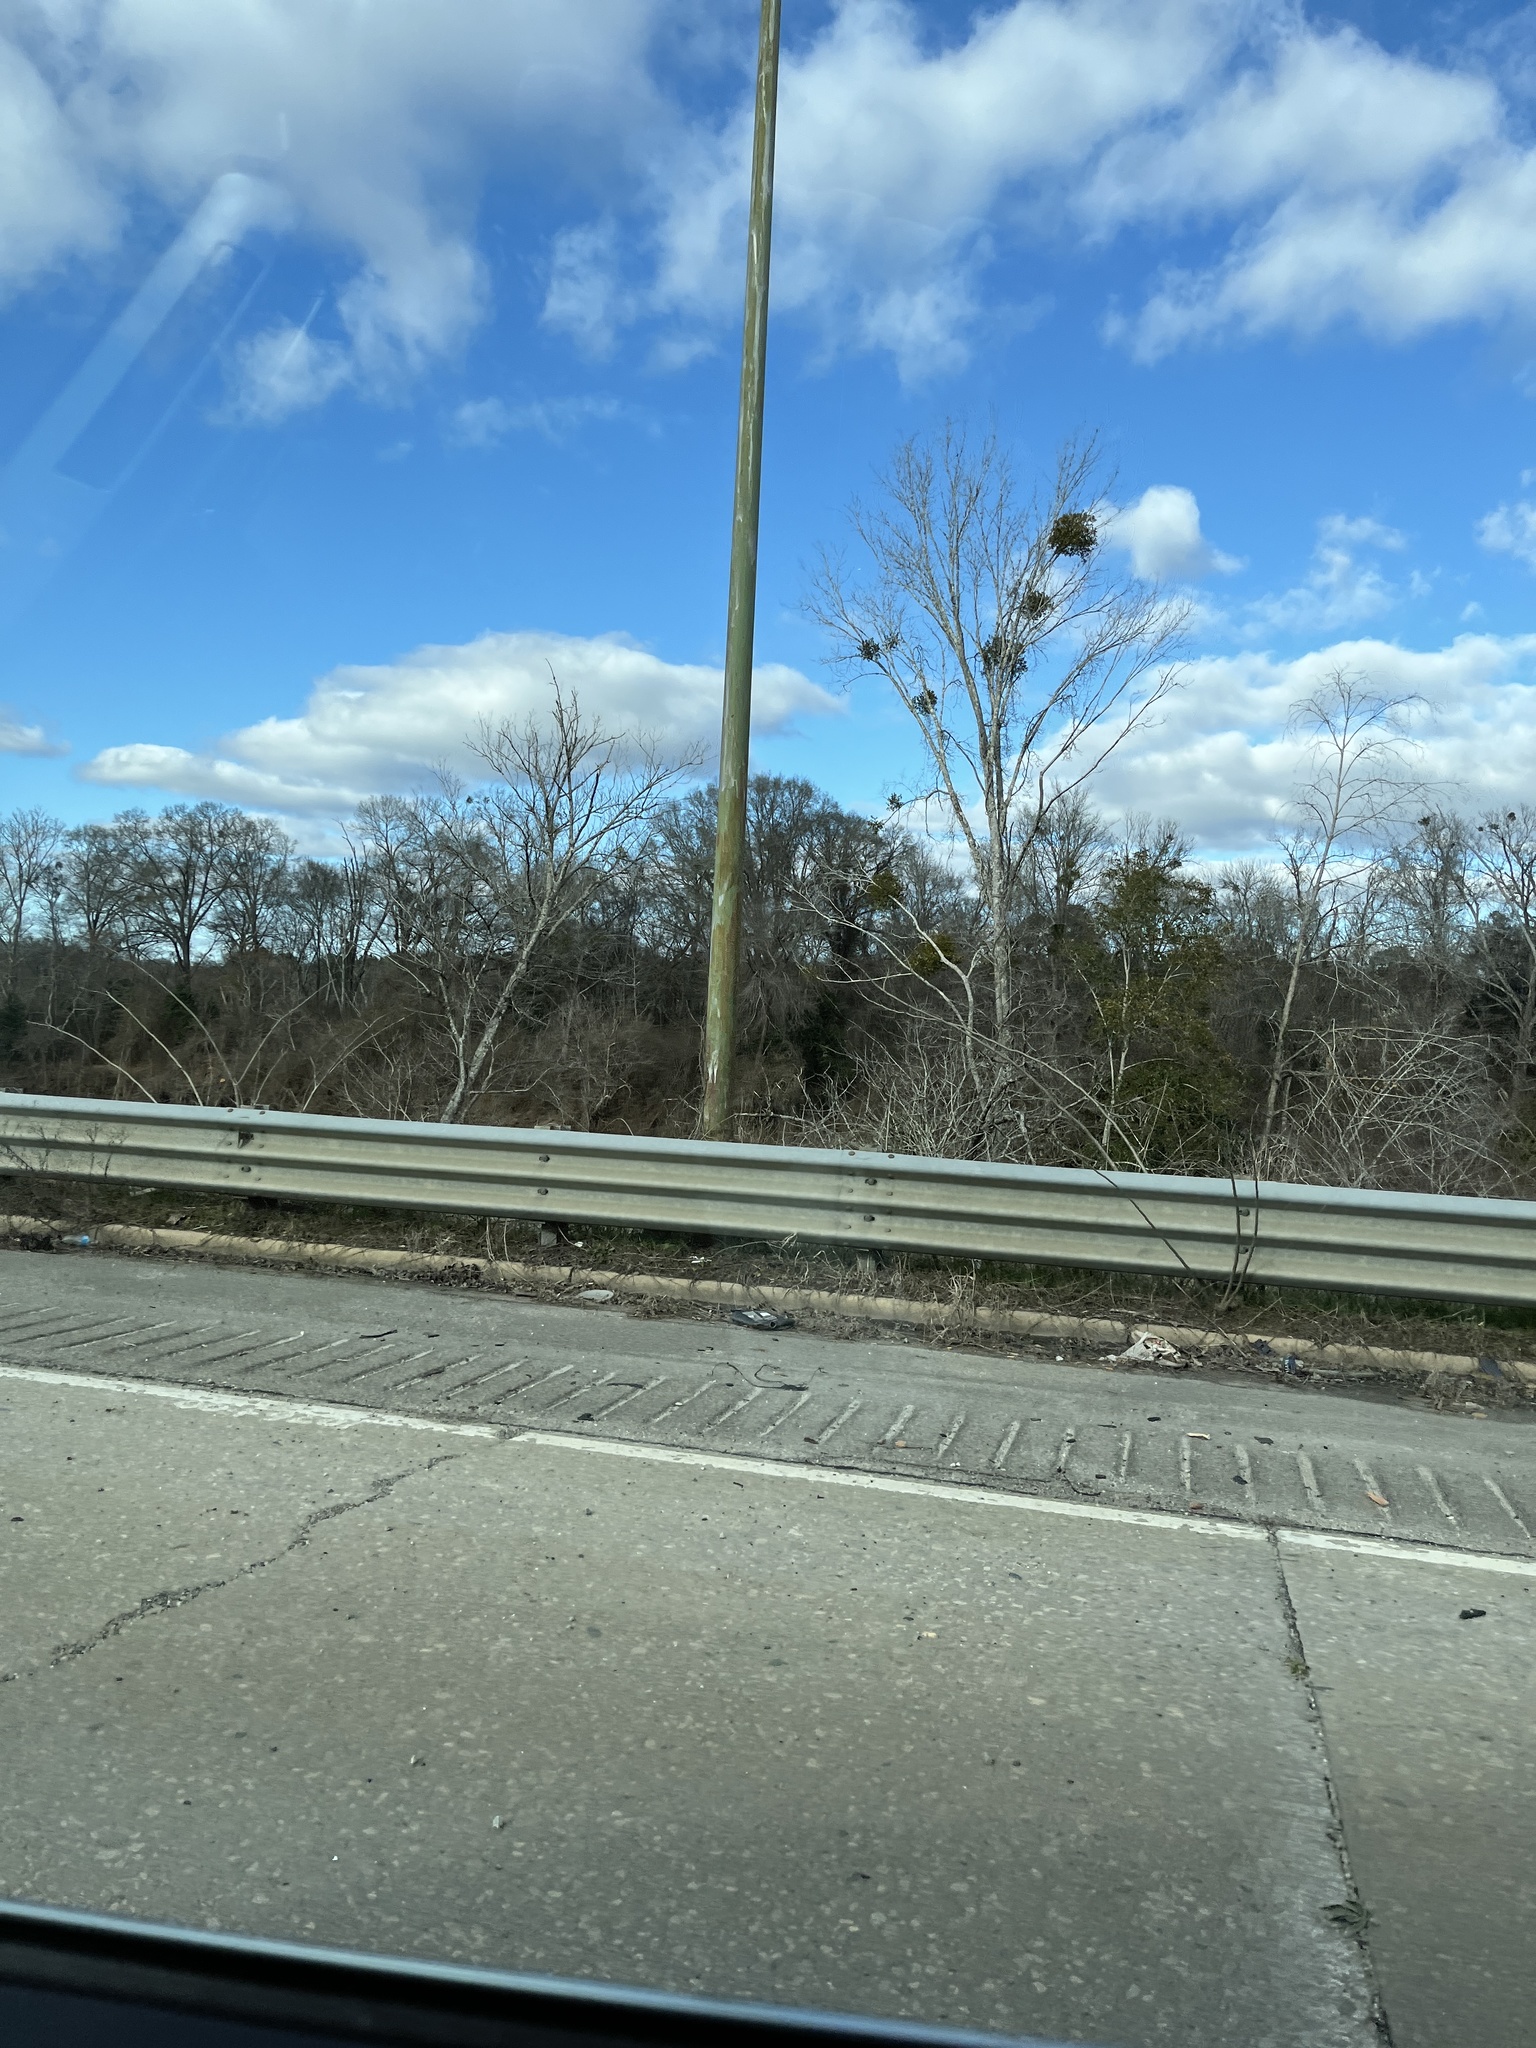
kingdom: Plantae
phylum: Tracheophyta
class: Magnoliopsida
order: Santalales
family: Viscaceae
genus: Phoradendron
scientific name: Phoradendron leucarpum
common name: Pacific mistletoe
